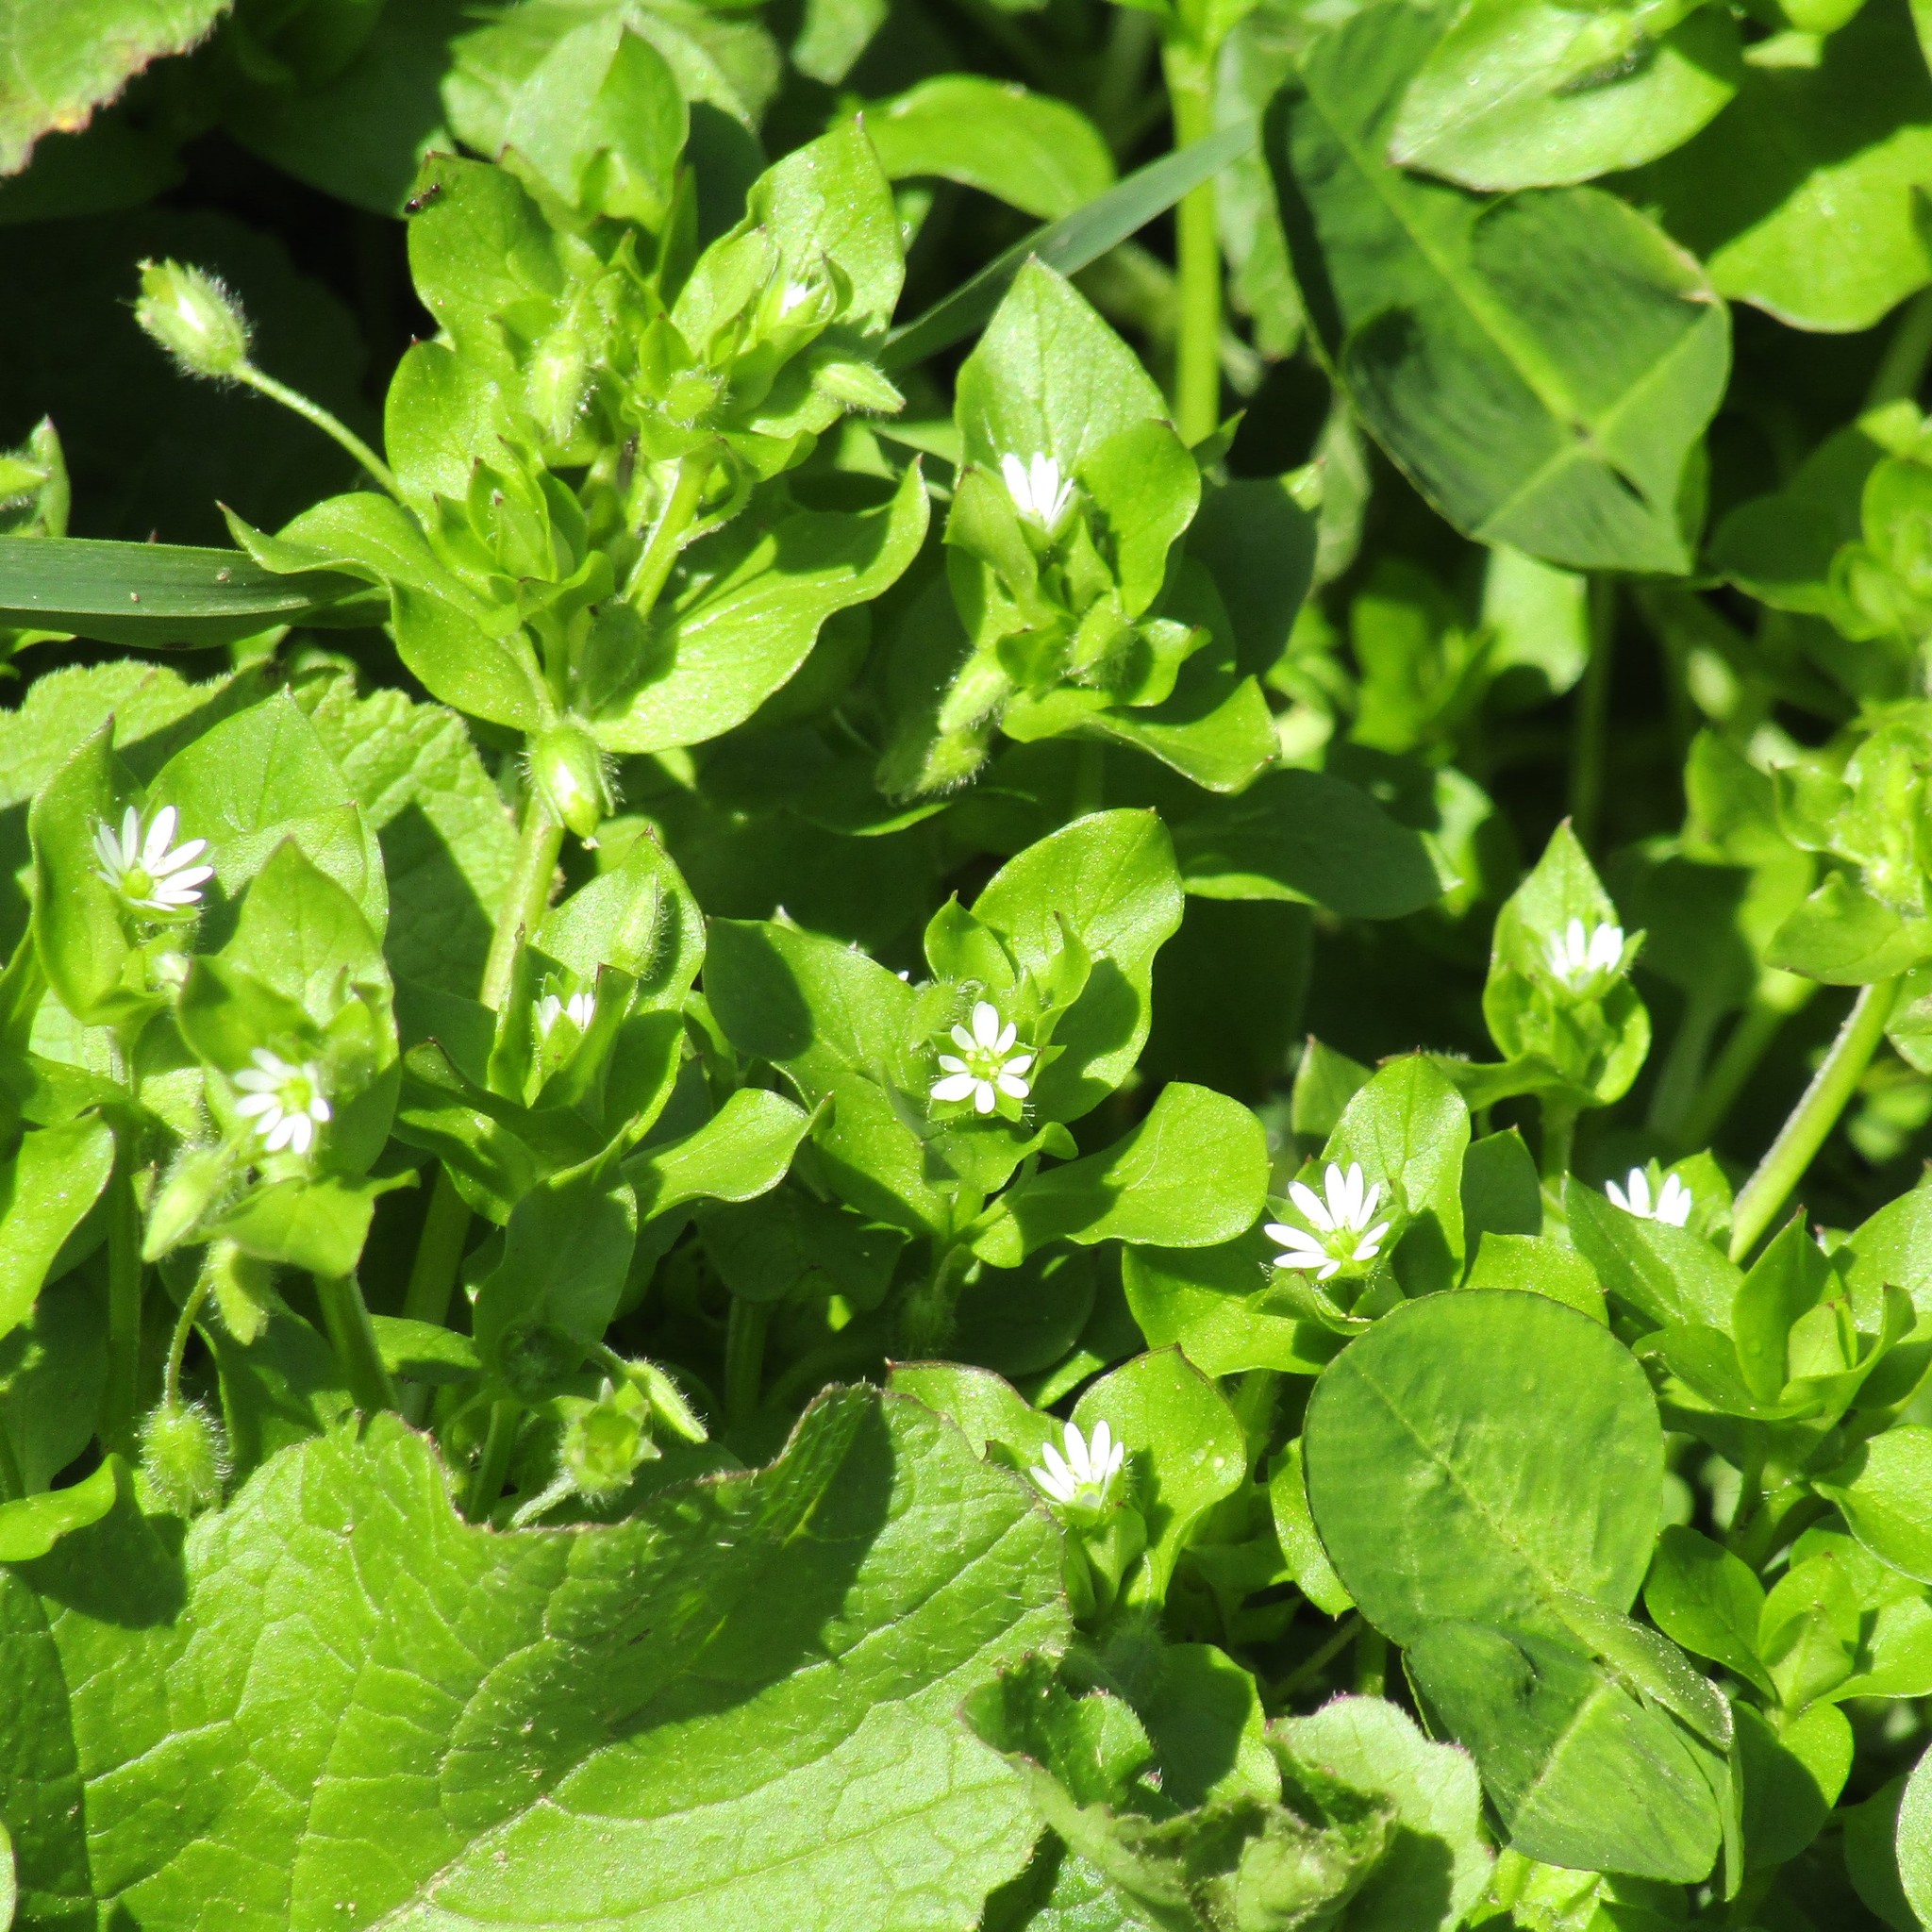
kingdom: Plantae
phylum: Tracheophyta
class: Magnoliopsida
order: Caryophyllales
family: Caryophyllaceae
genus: Stellaria
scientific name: Stellaria media
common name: Common chickweed
